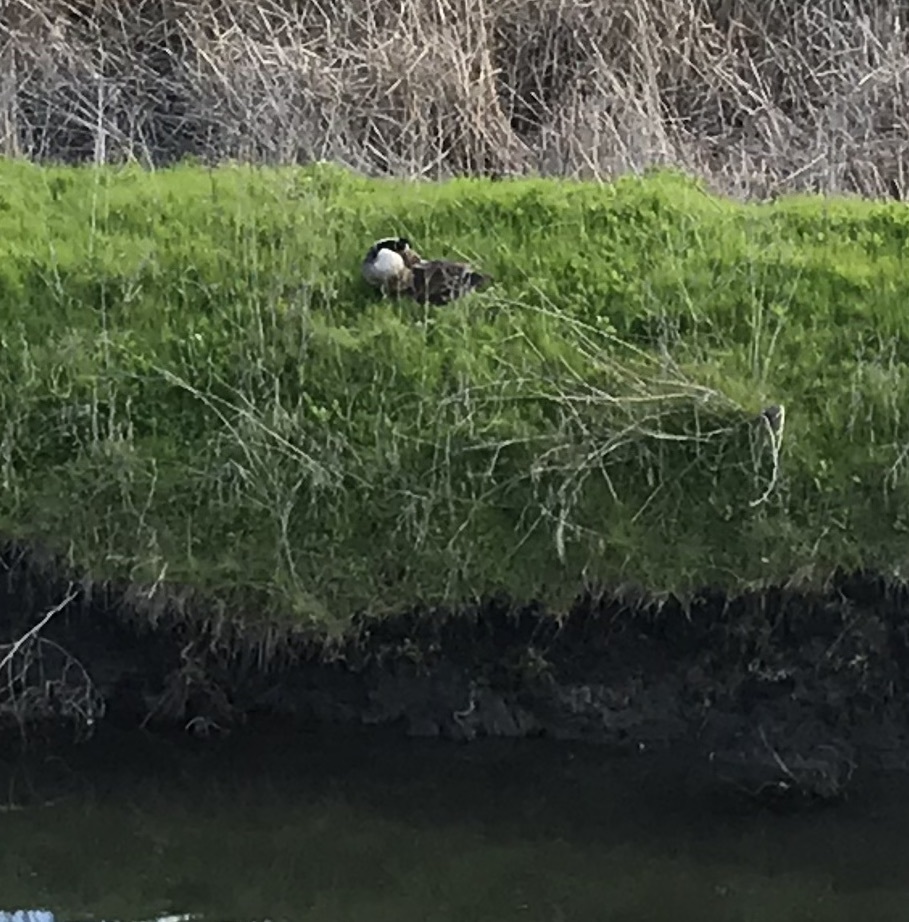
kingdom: Animalia
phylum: Chordata
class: Aves
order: Anseriformes
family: Anatidae
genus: Branta
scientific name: Branta canadensis
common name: Canada goose
